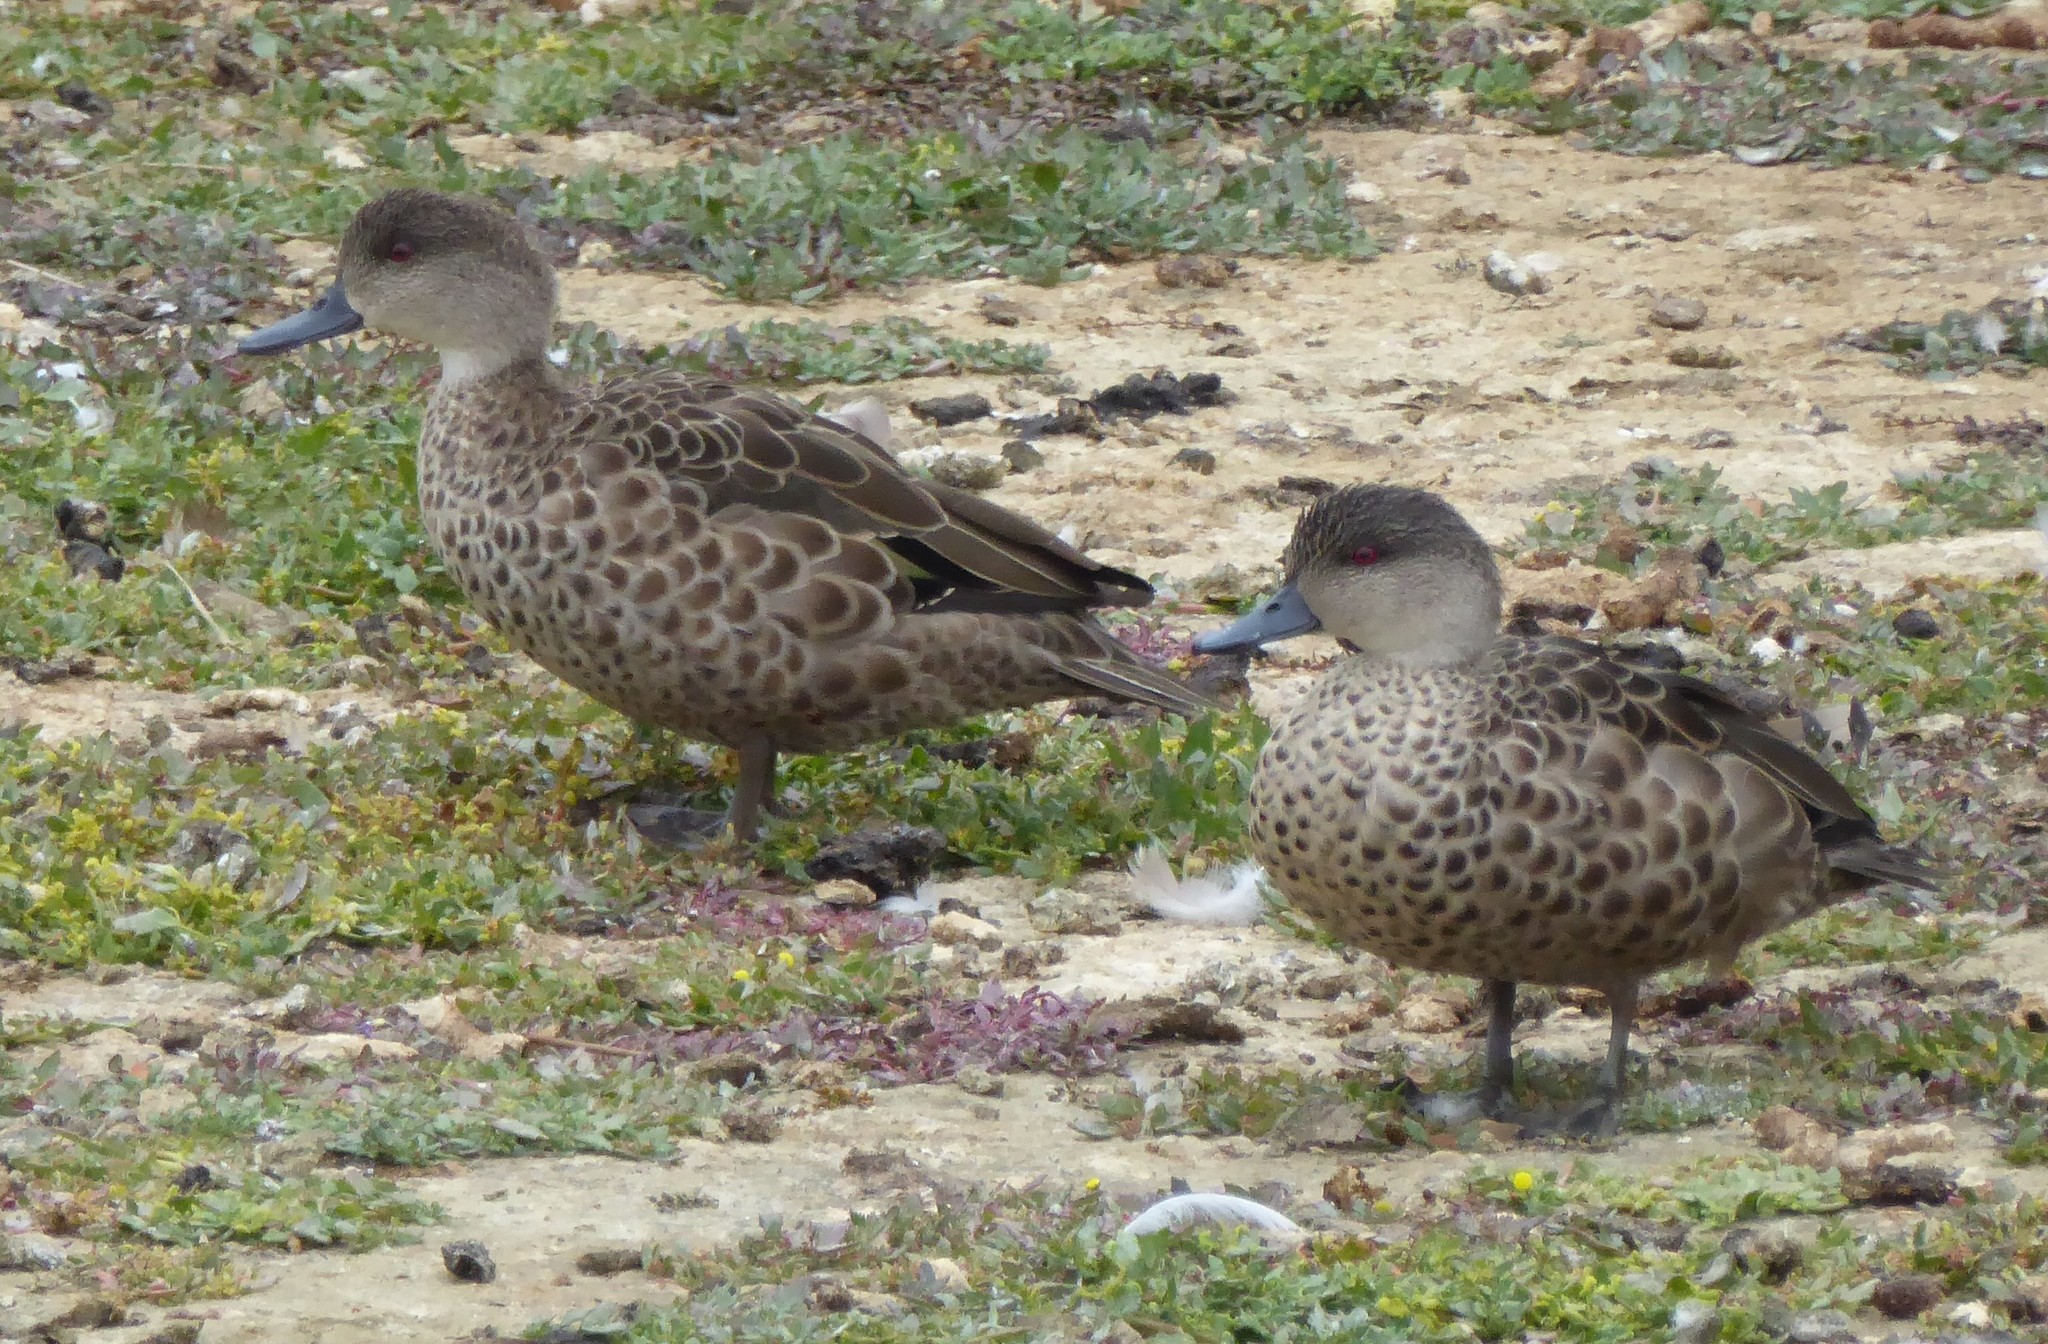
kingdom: Animalia
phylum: Chordata
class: Aves
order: Anseriformes
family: Anatidae
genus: Anas
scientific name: Anas gracilis
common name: Grey teal
